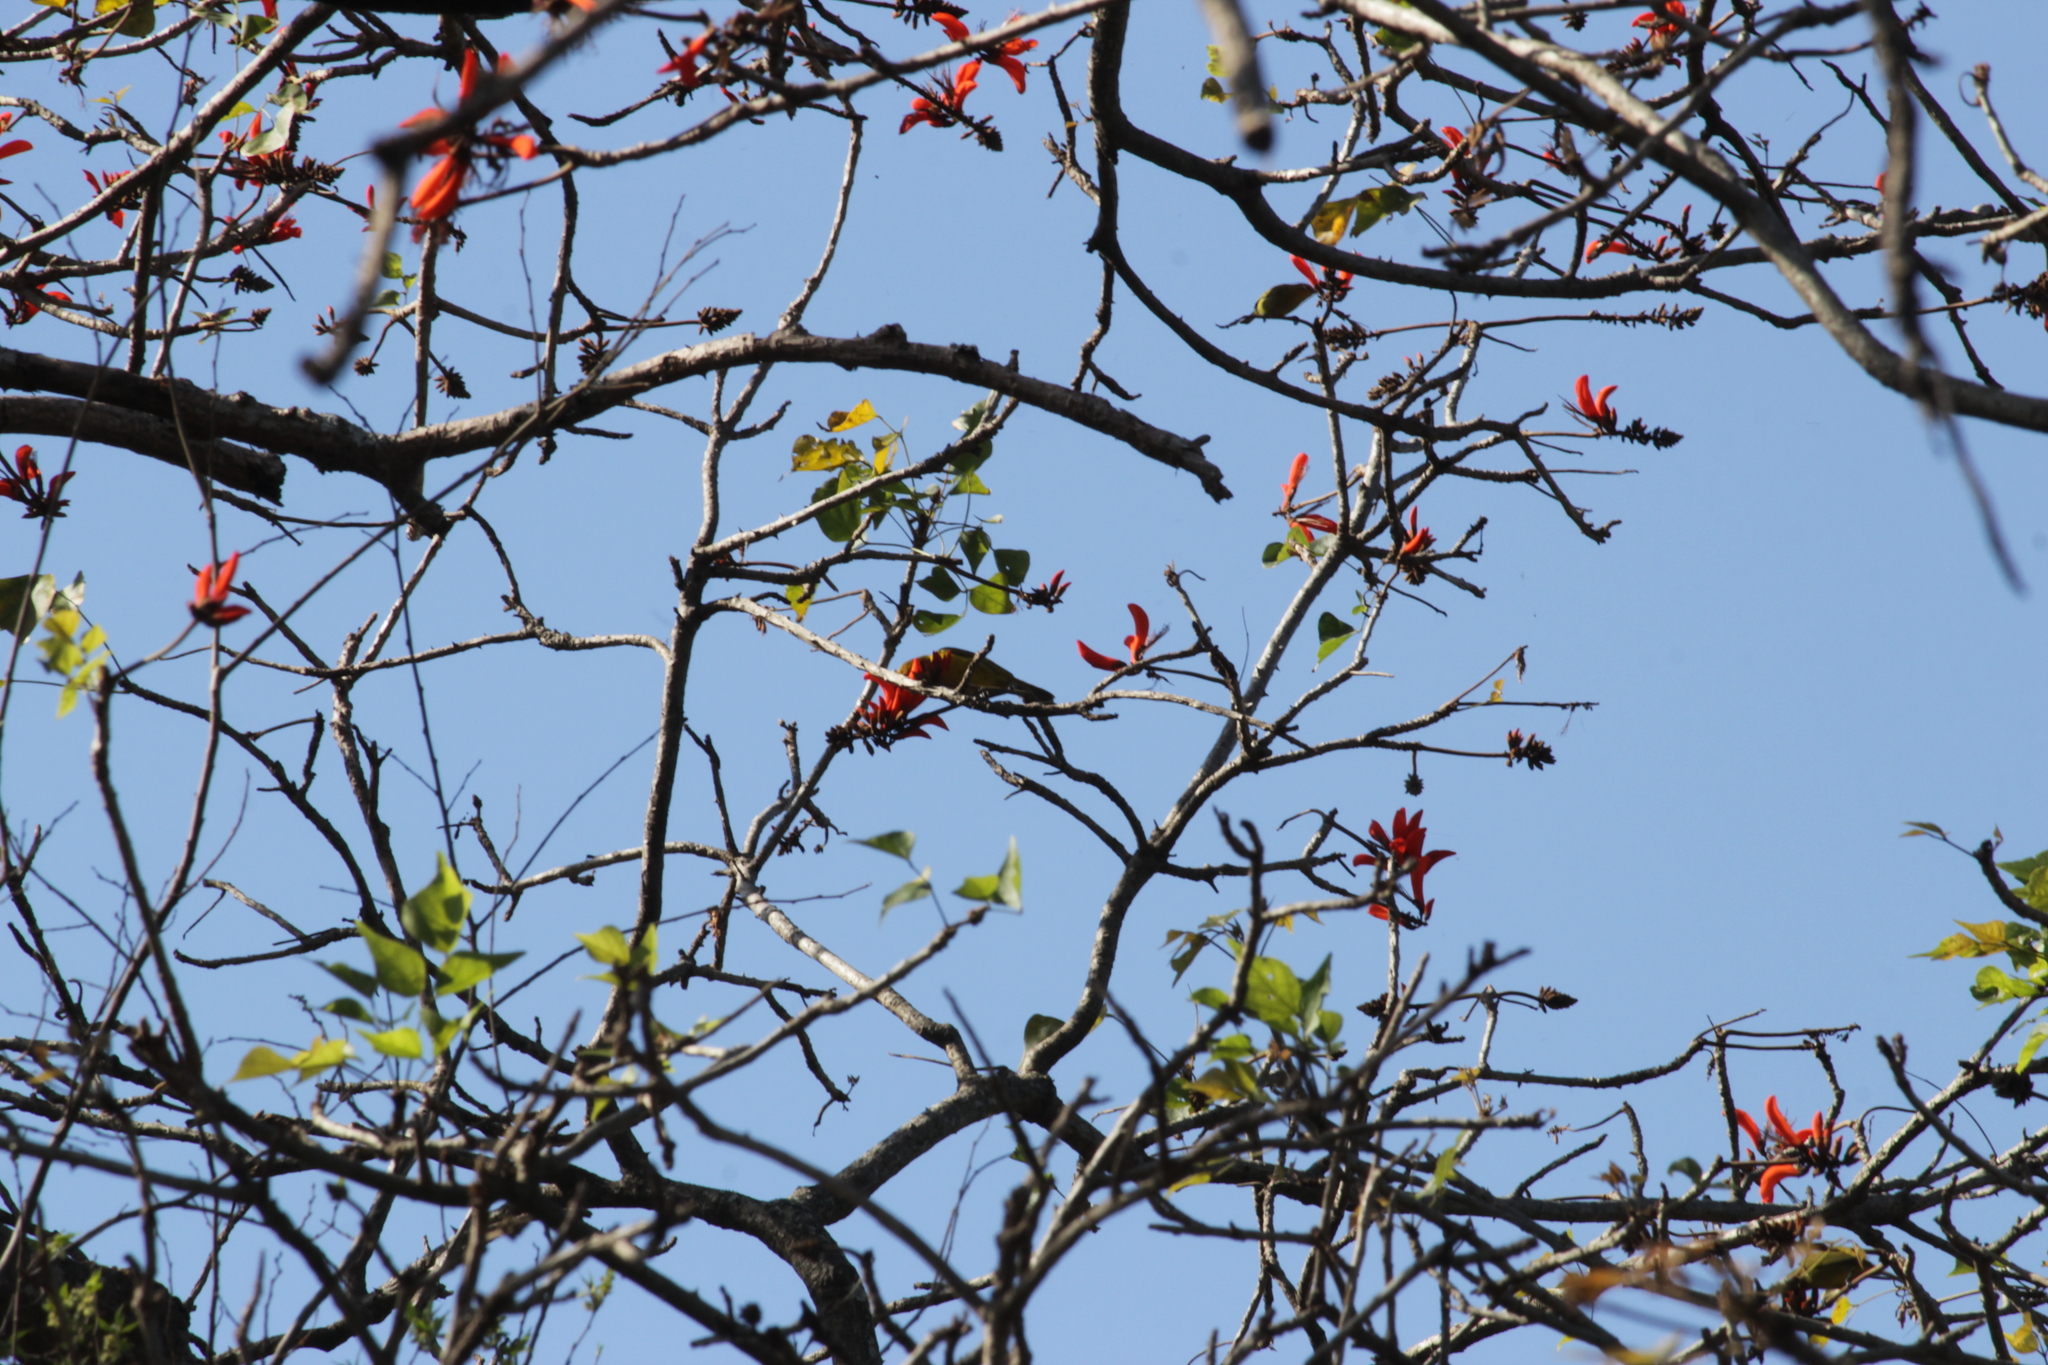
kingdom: Animalia
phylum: Chordata
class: Aves
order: Passeriformes
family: Ploceidae
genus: Ploceus
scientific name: Ploceus ocularis
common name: Spectacled weaver
